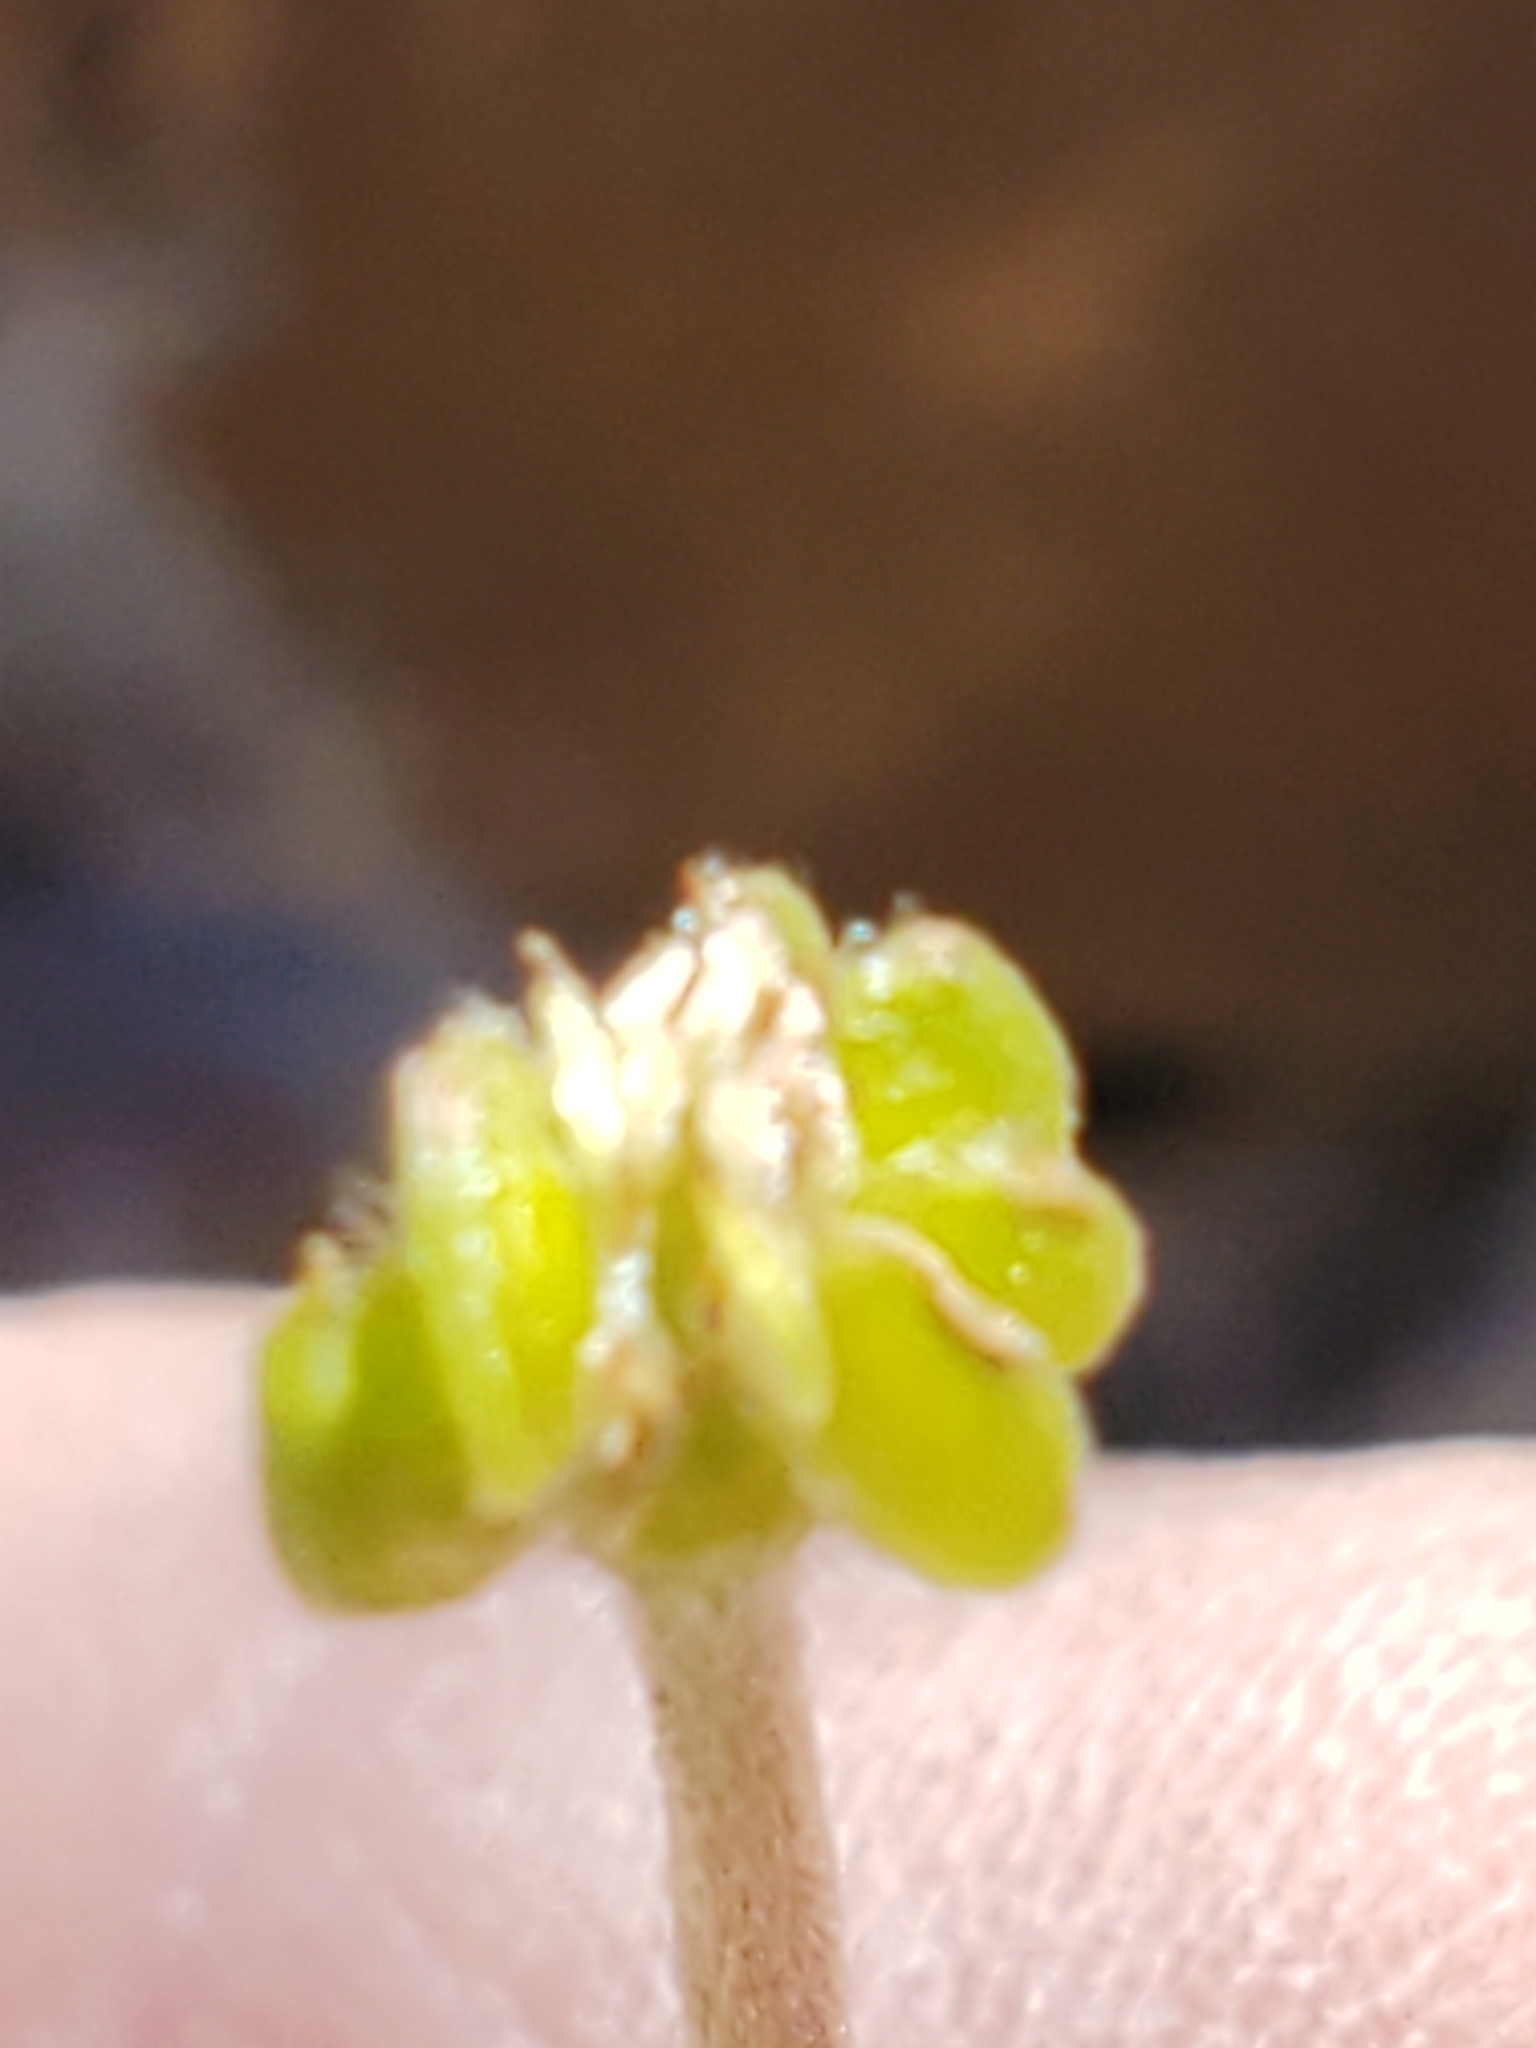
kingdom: Plantae
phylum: Tracheophyta
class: Magnoliopsida
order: Ranunculales
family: Ranunculaceae
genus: Anemone
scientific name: Anemone edwardsiana
